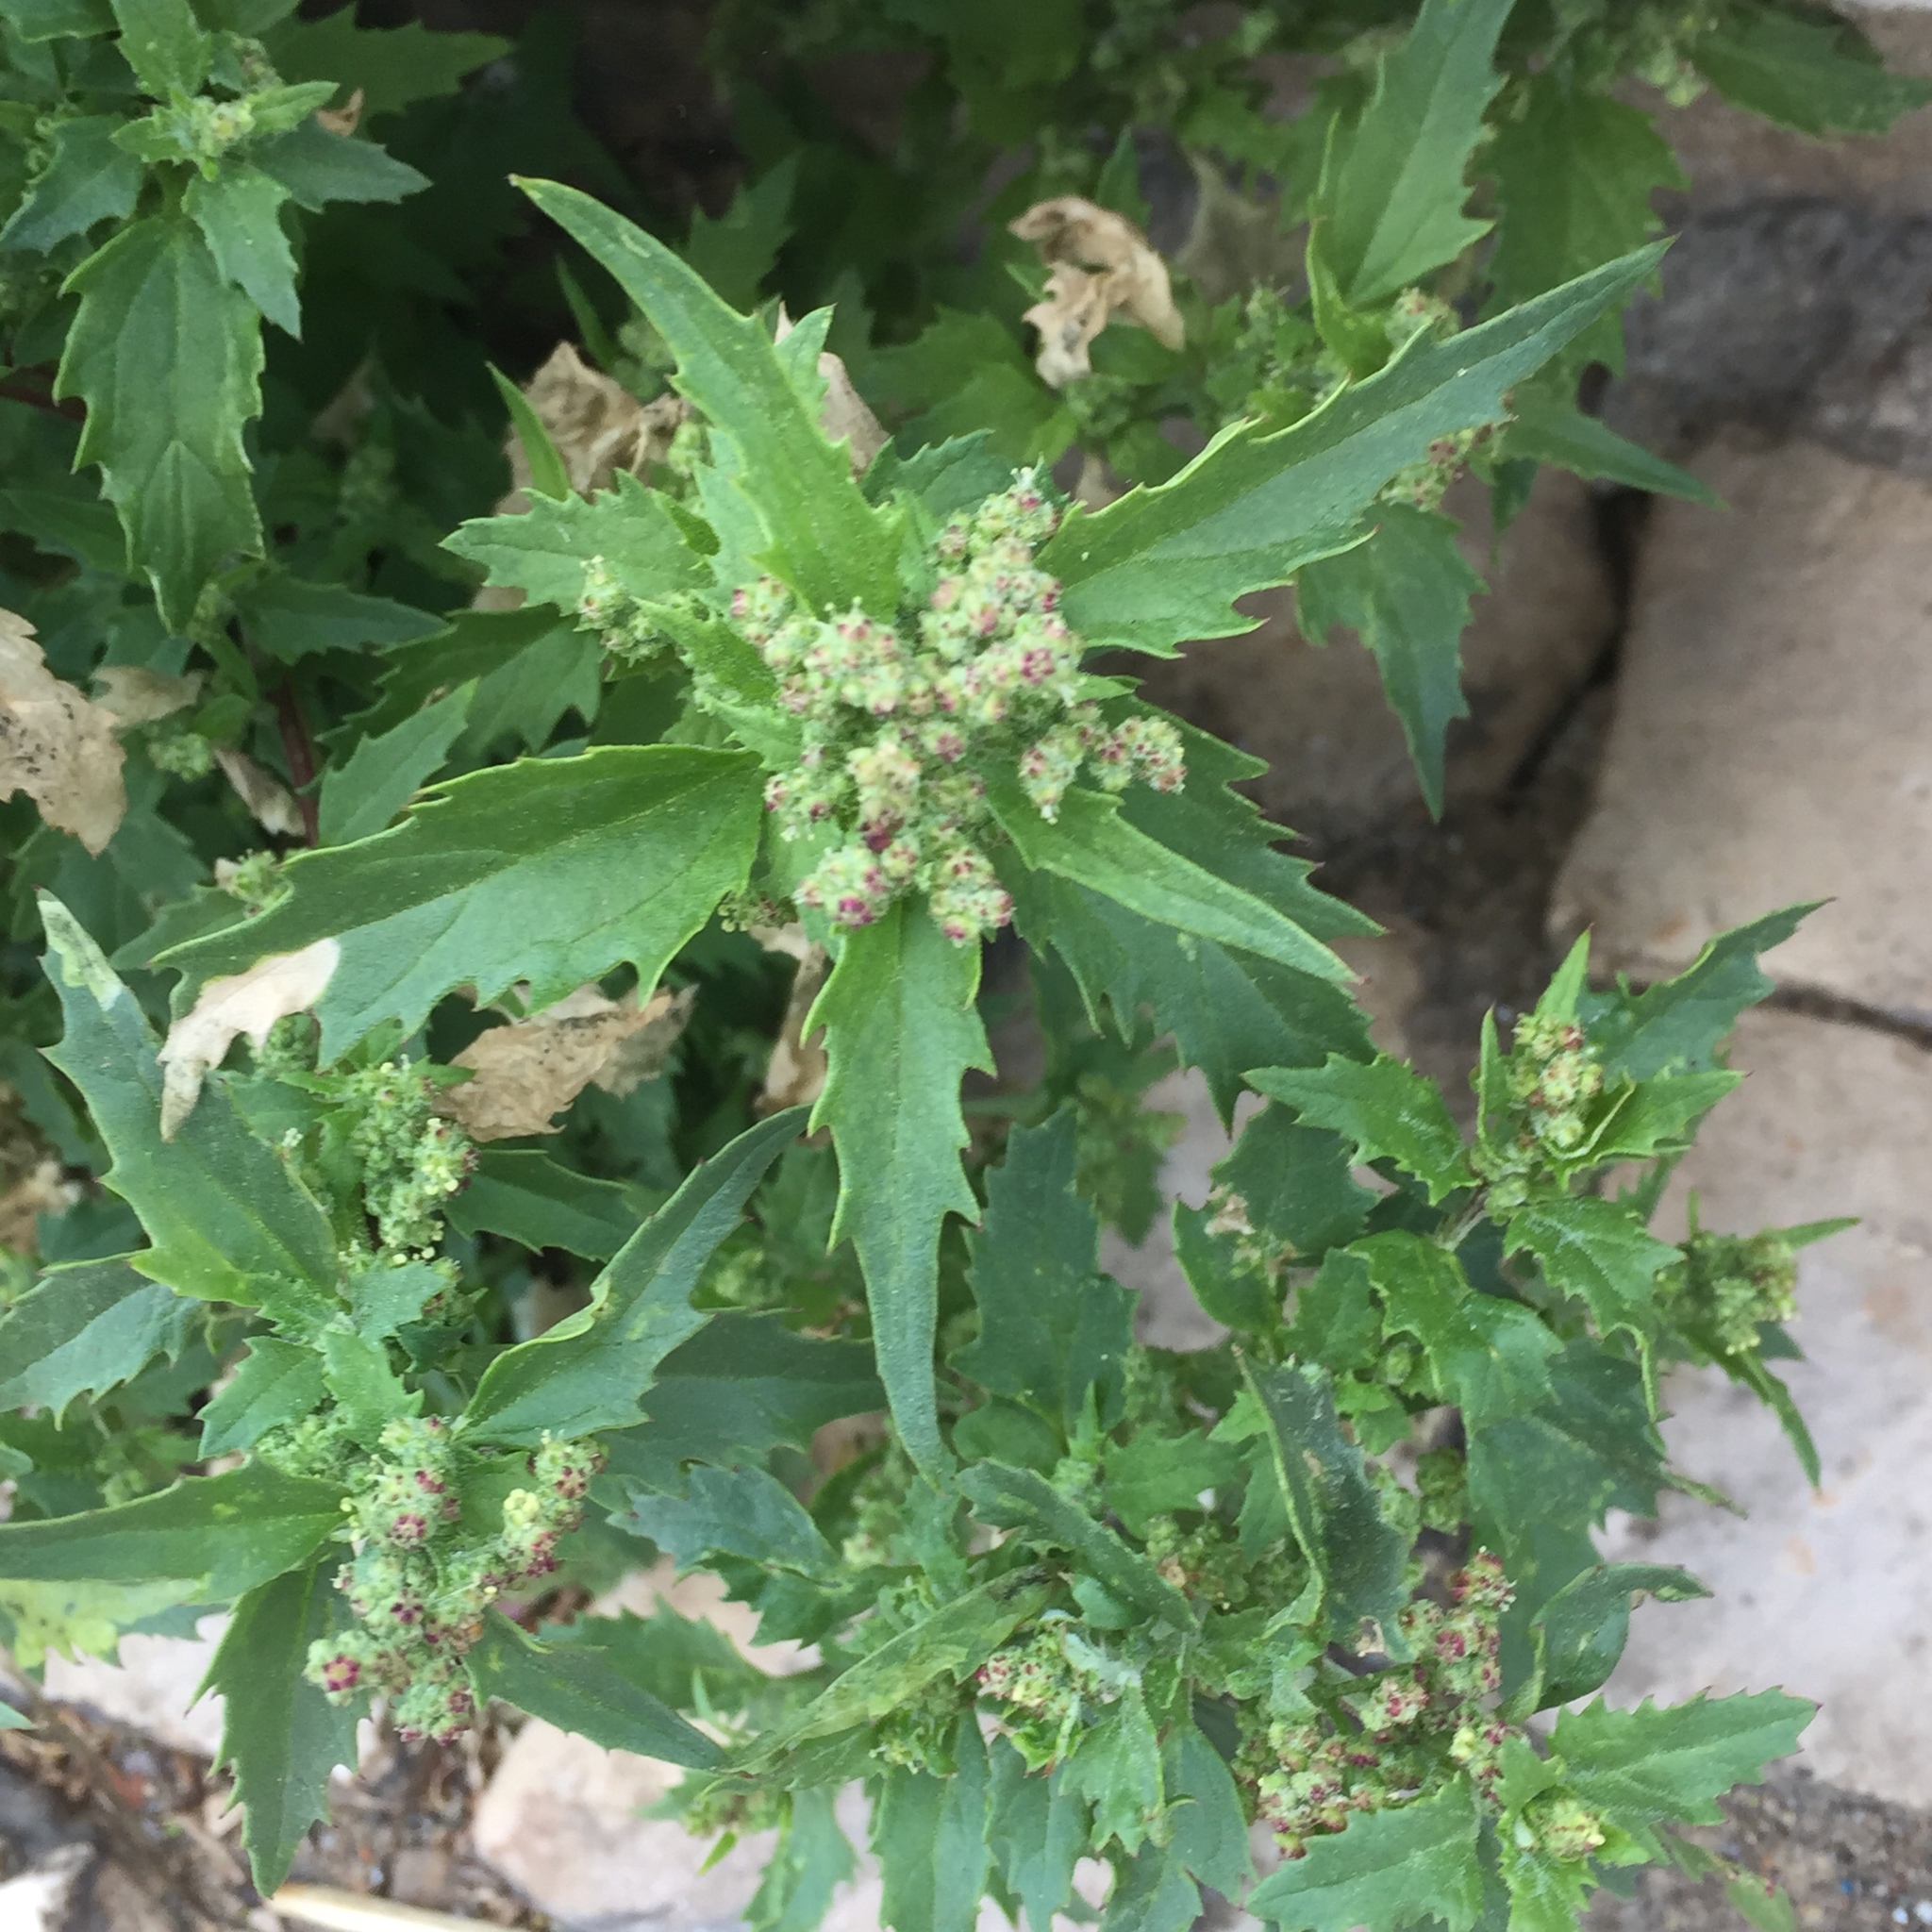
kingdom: Plantae
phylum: Tracheophyta
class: Magnoliopsida
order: Caryophyllales
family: Amaranthaceae
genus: Chenopodiastrum
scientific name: Chenopodiastrum murale
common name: Sowbane
